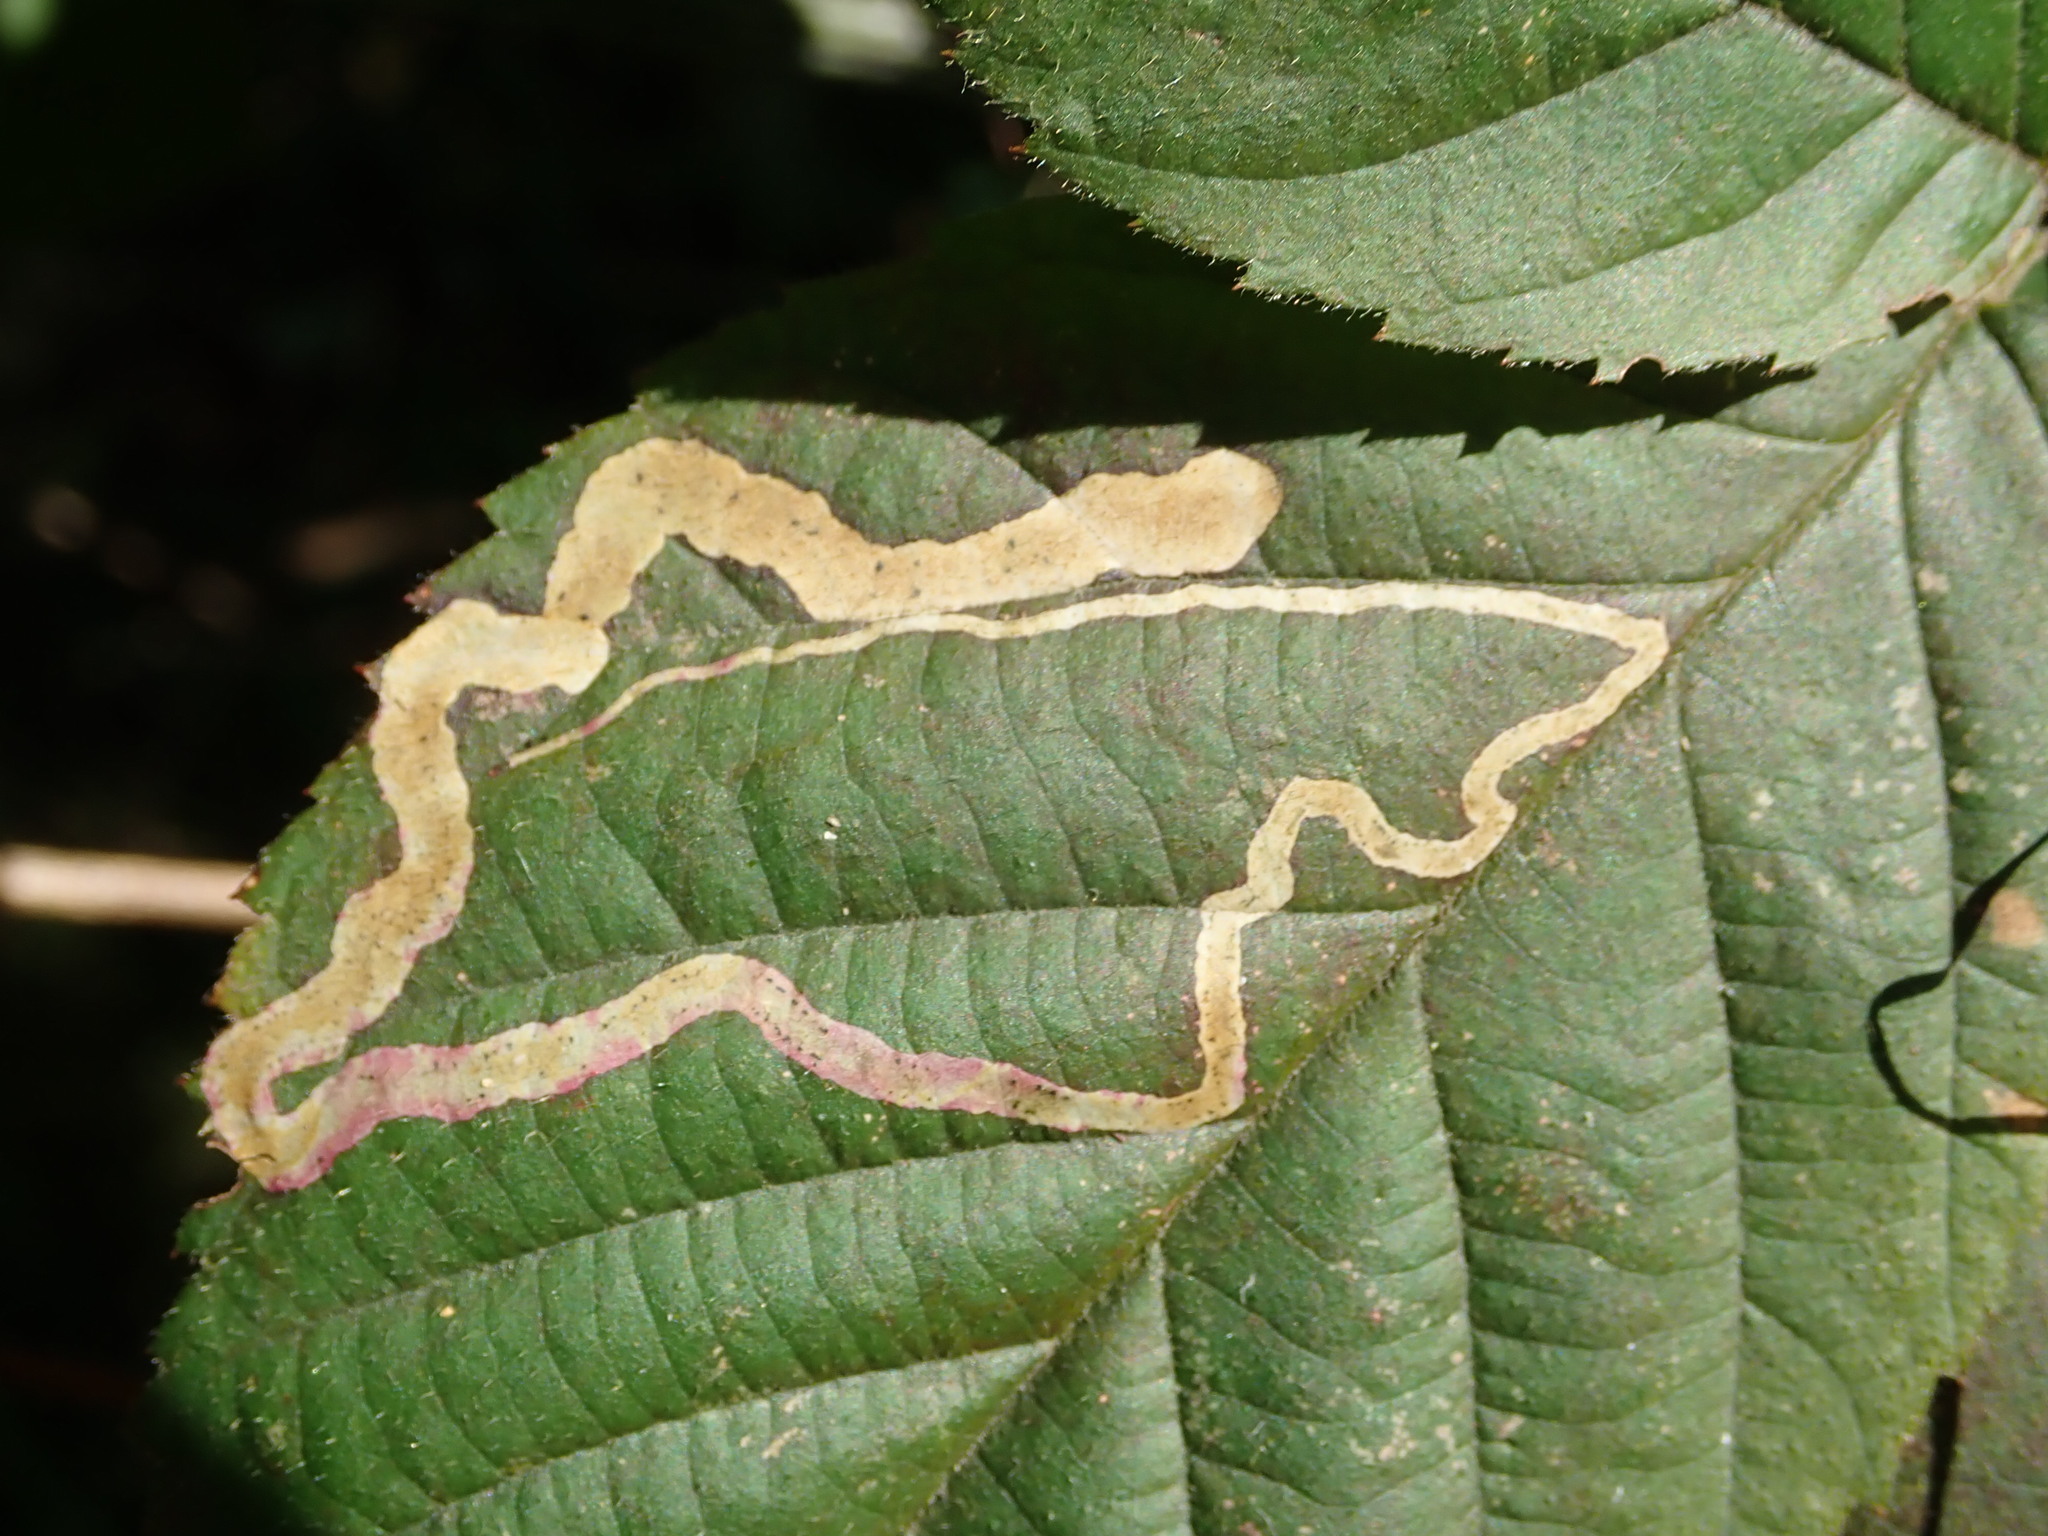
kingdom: Animalia
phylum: Arthropoda
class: Insecta
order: Diptera
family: Agromyzidae
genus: Agromyza
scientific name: Agromyza vockerothi
